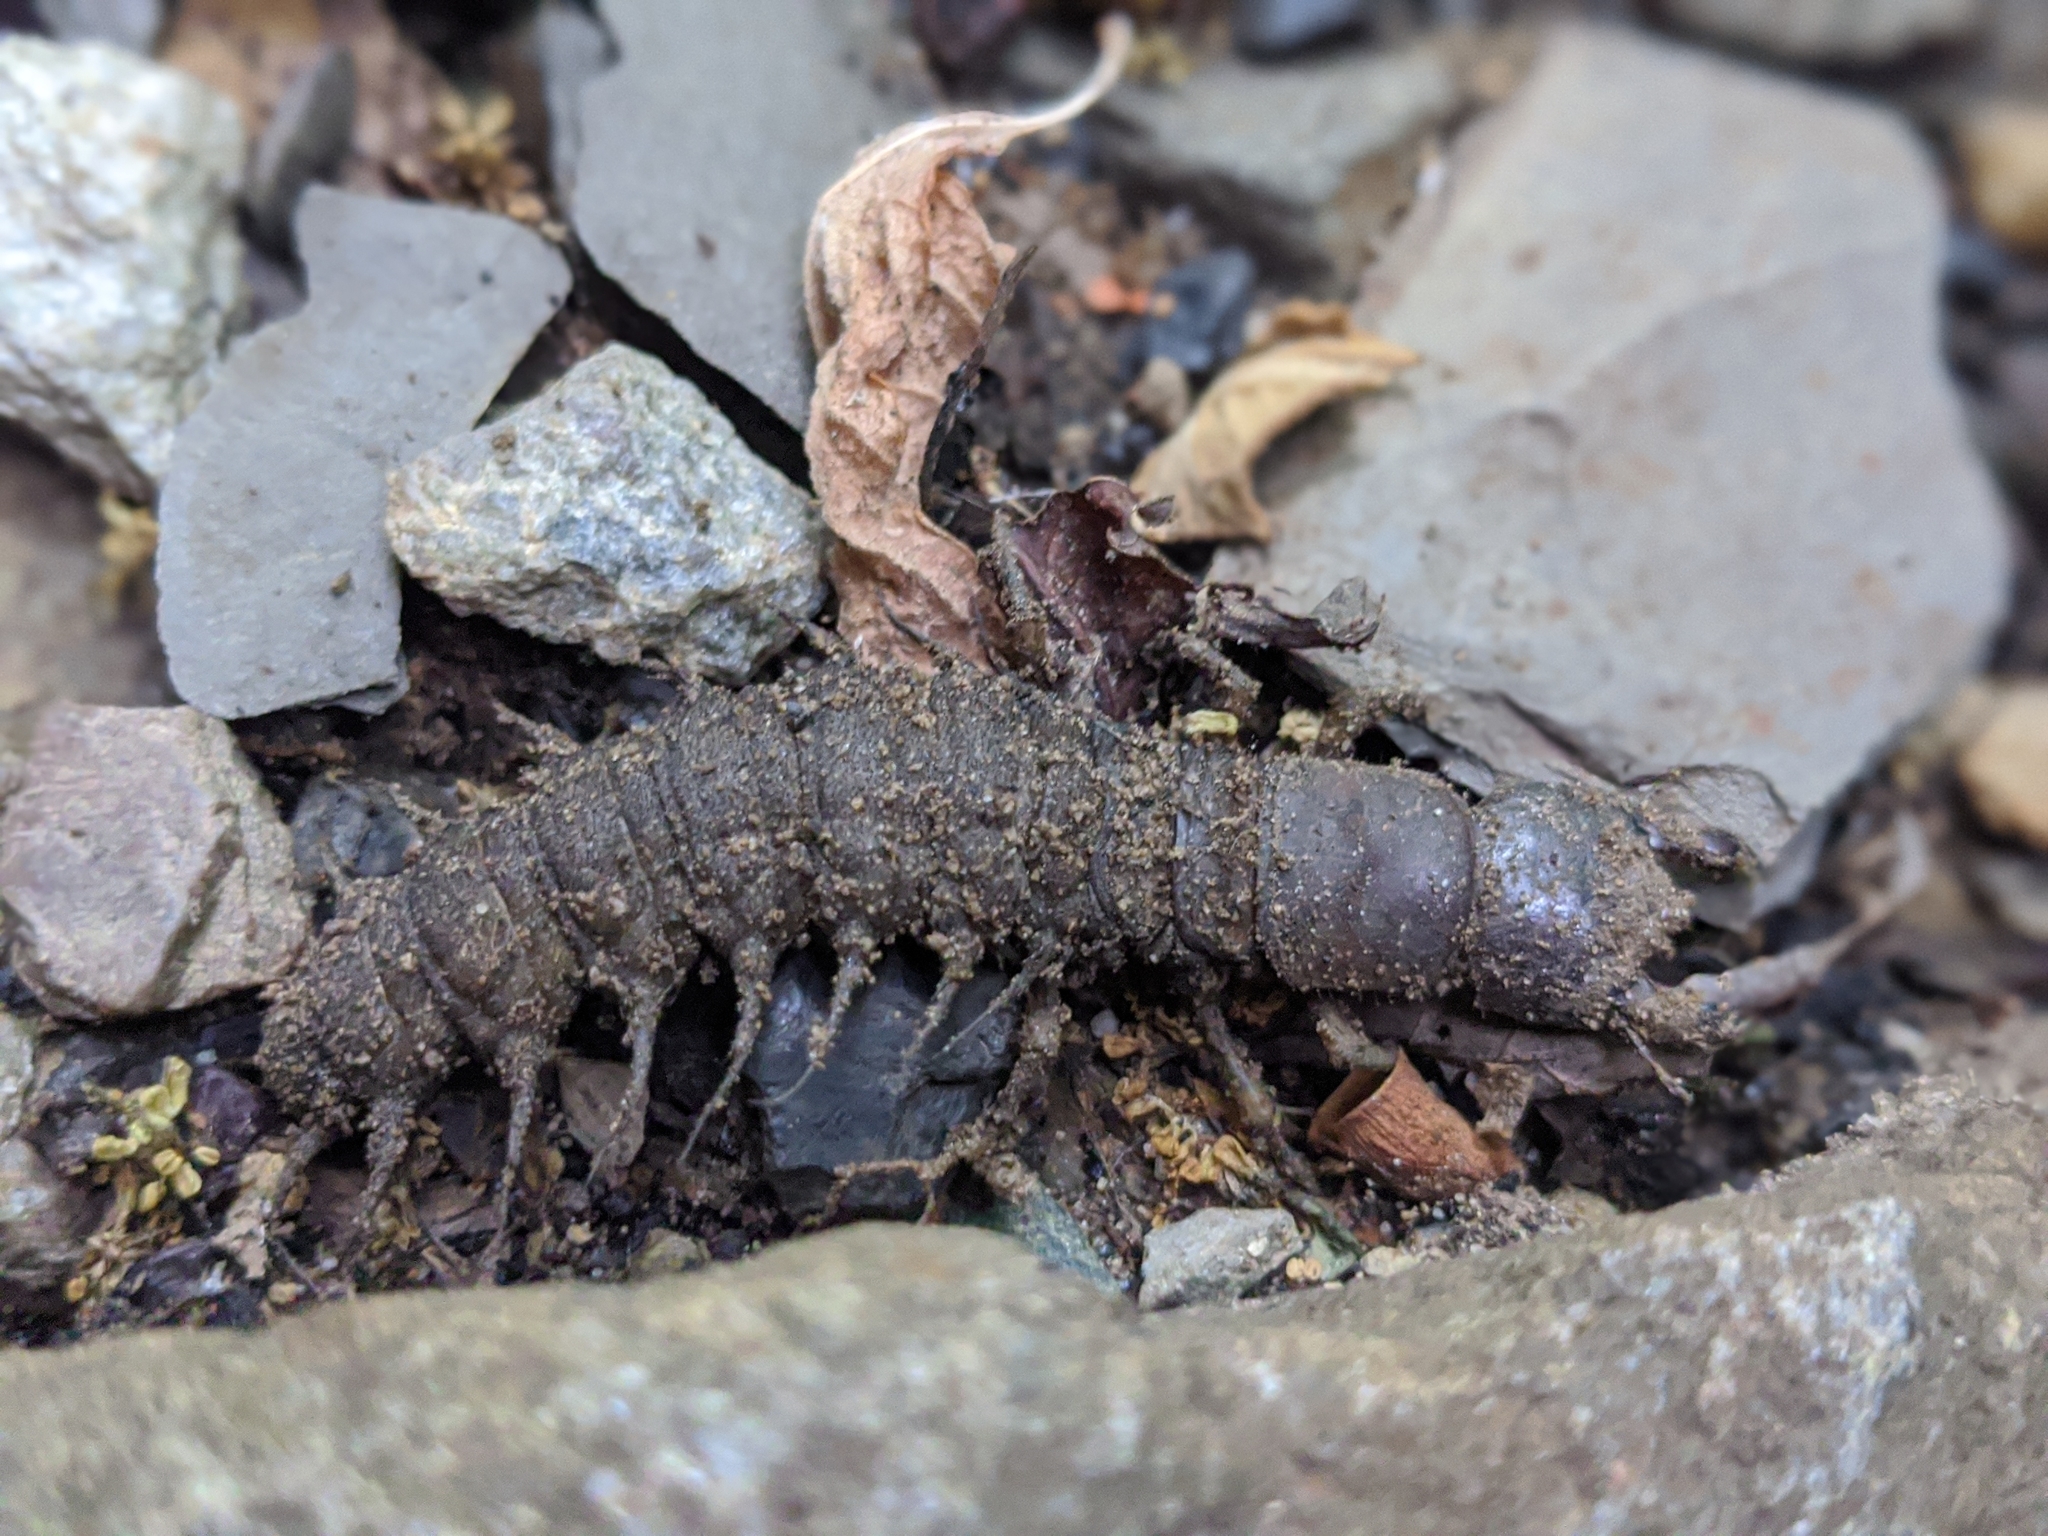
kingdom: Animalia
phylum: Arthropoda
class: Insecta
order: Megaloptera
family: Corydalidae
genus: Corydalus
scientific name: Corydalus cornutus
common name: Dobsonfly
